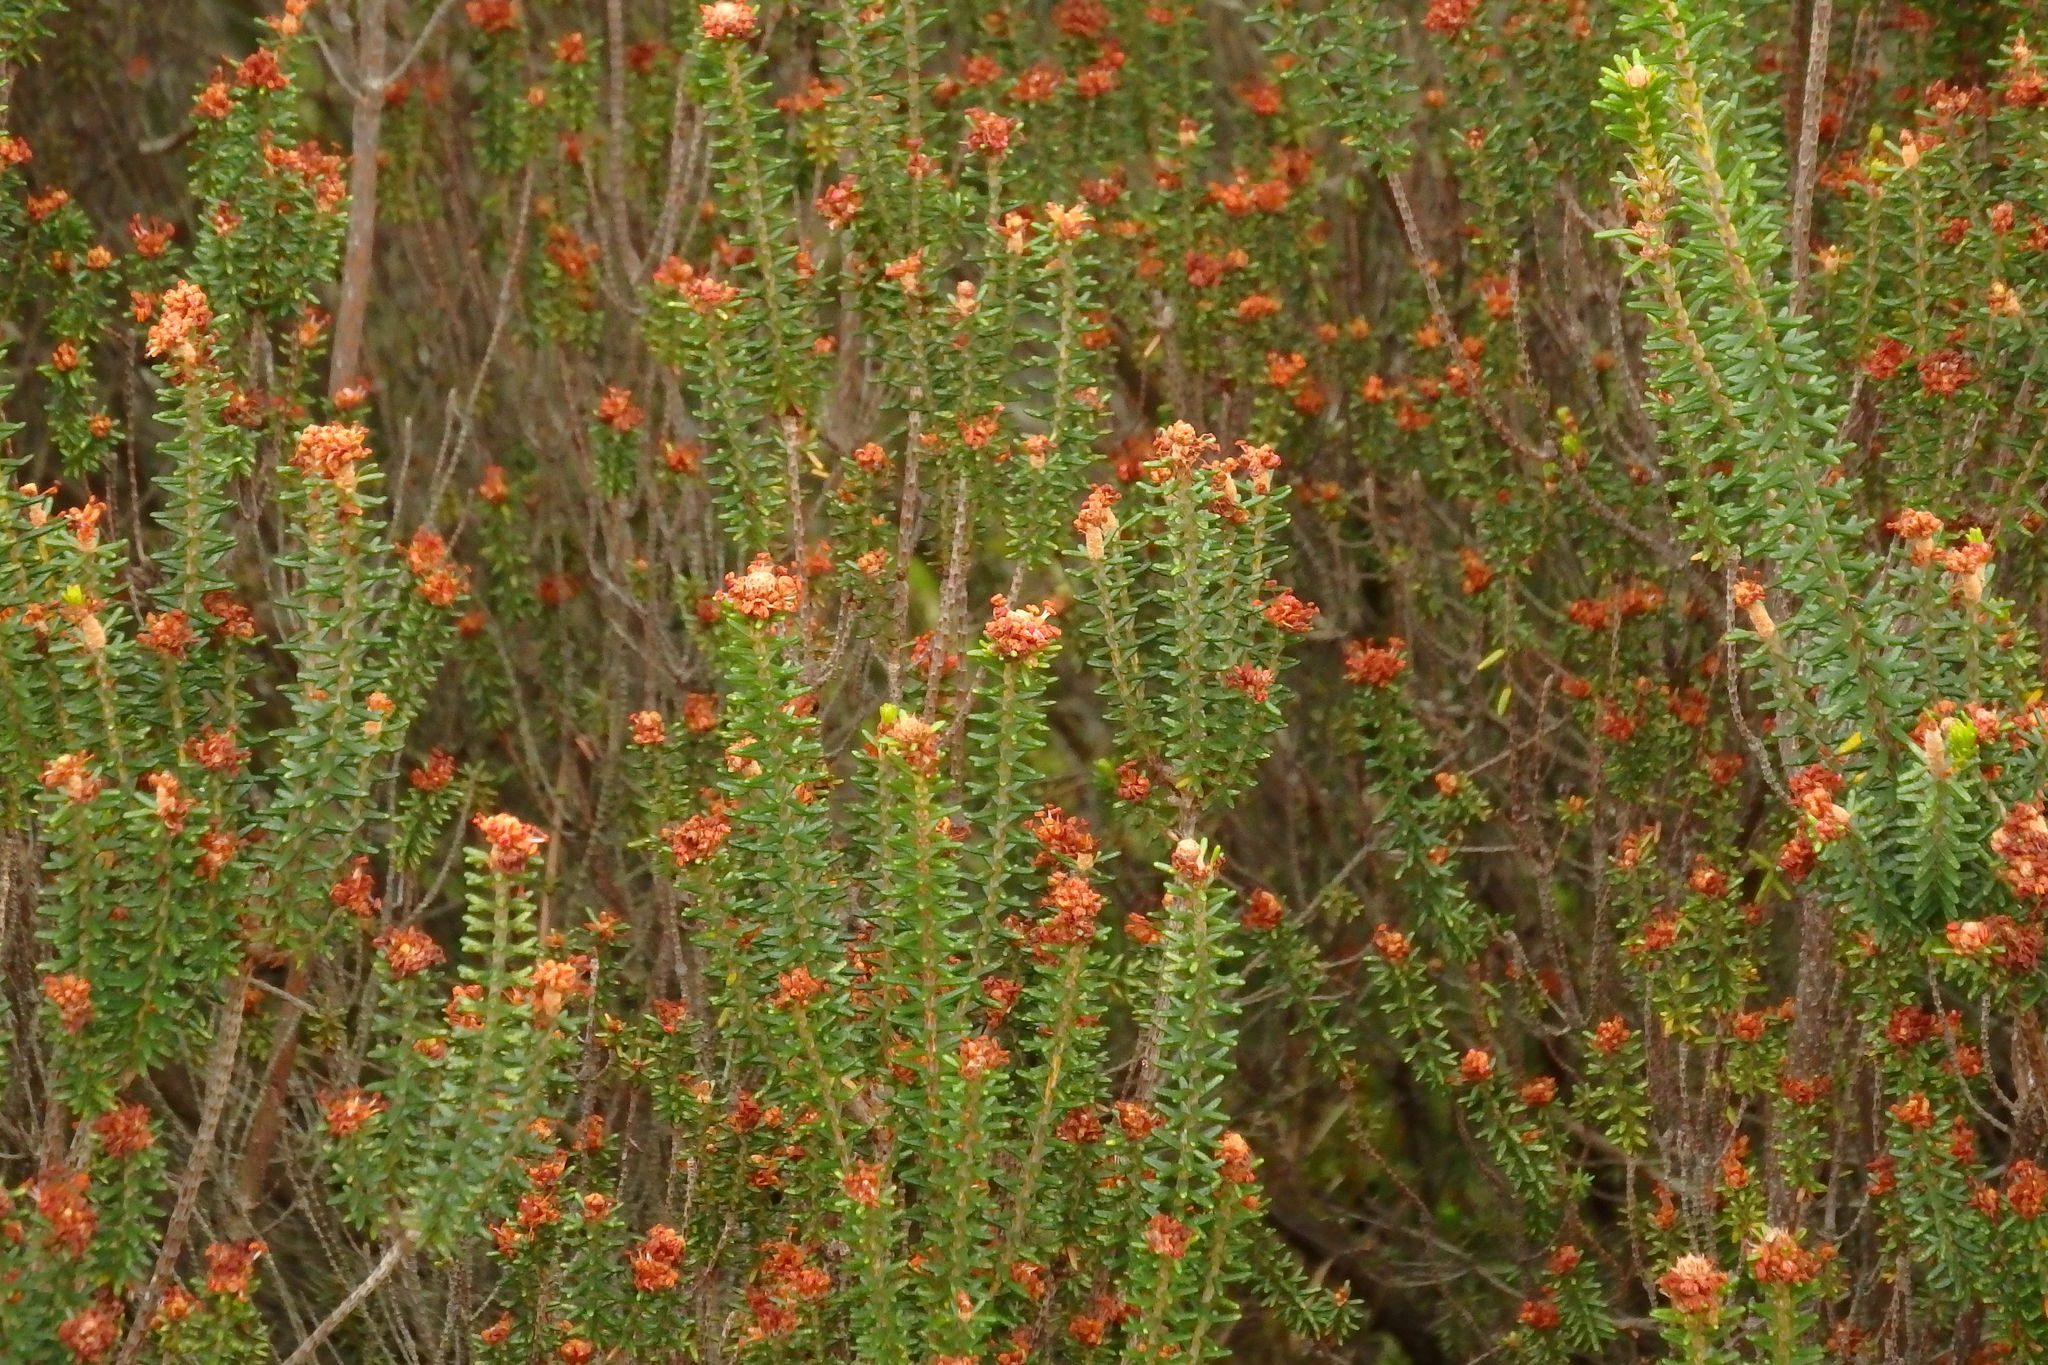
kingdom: Plantae
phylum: Tracheophyta
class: Magnoliopsida
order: Ericales
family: Ericaceae
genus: Corema
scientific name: Corema album
